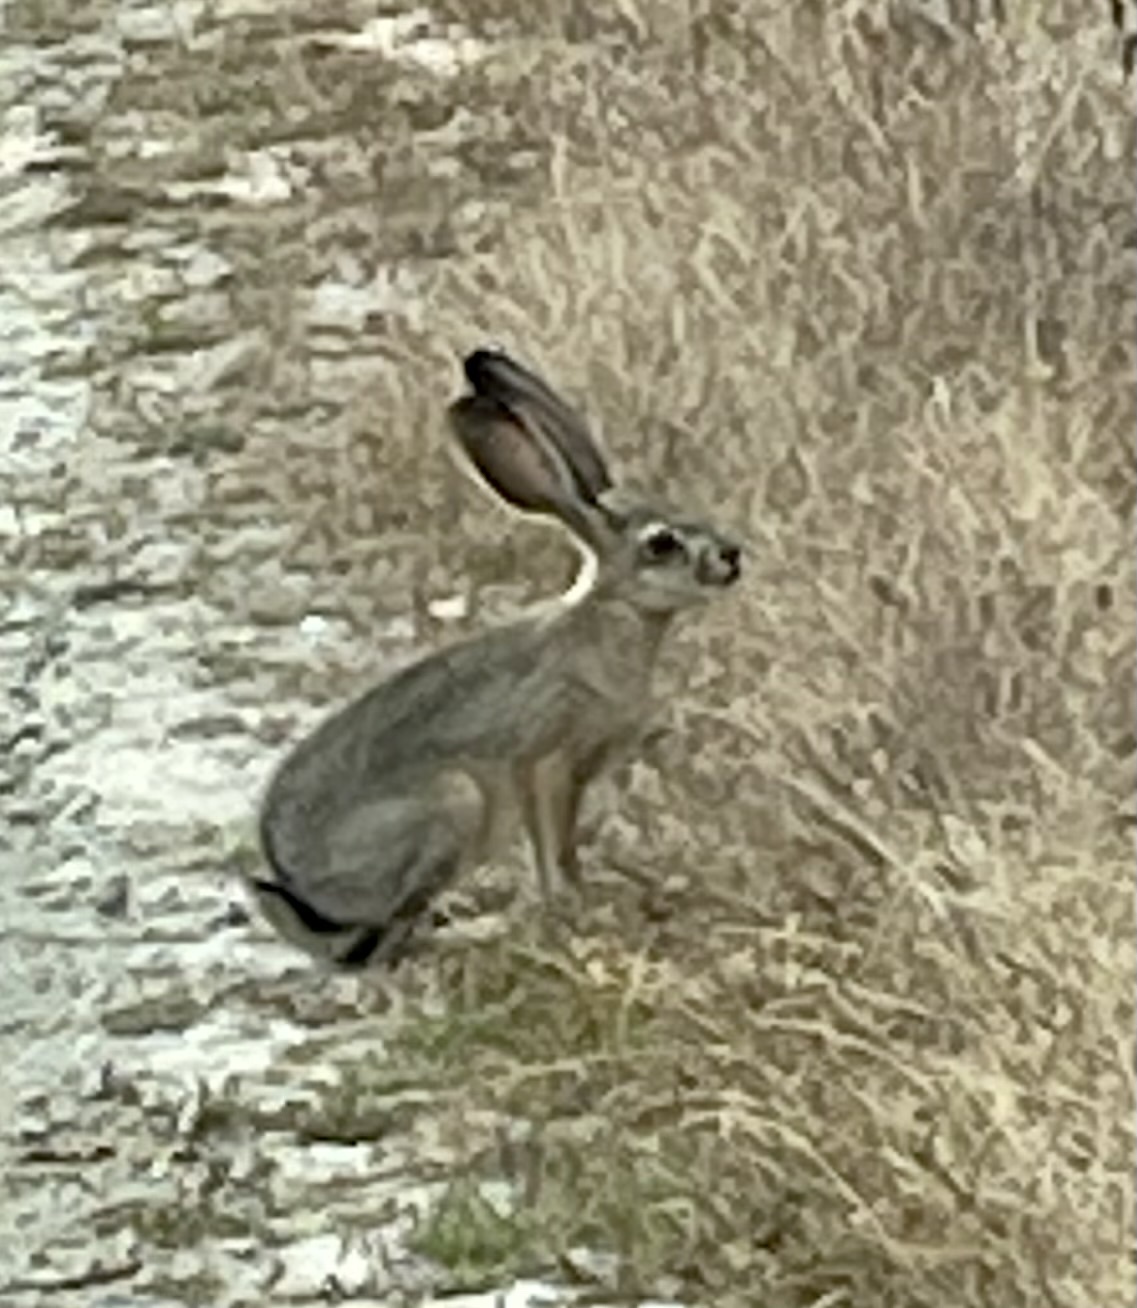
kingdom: Animalia
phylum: Chordata
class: Mammalia
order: Lagomorpha
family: Leporidae
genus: Lepus
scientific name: Lepus californicus
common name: Black-tailed jackrabbit
